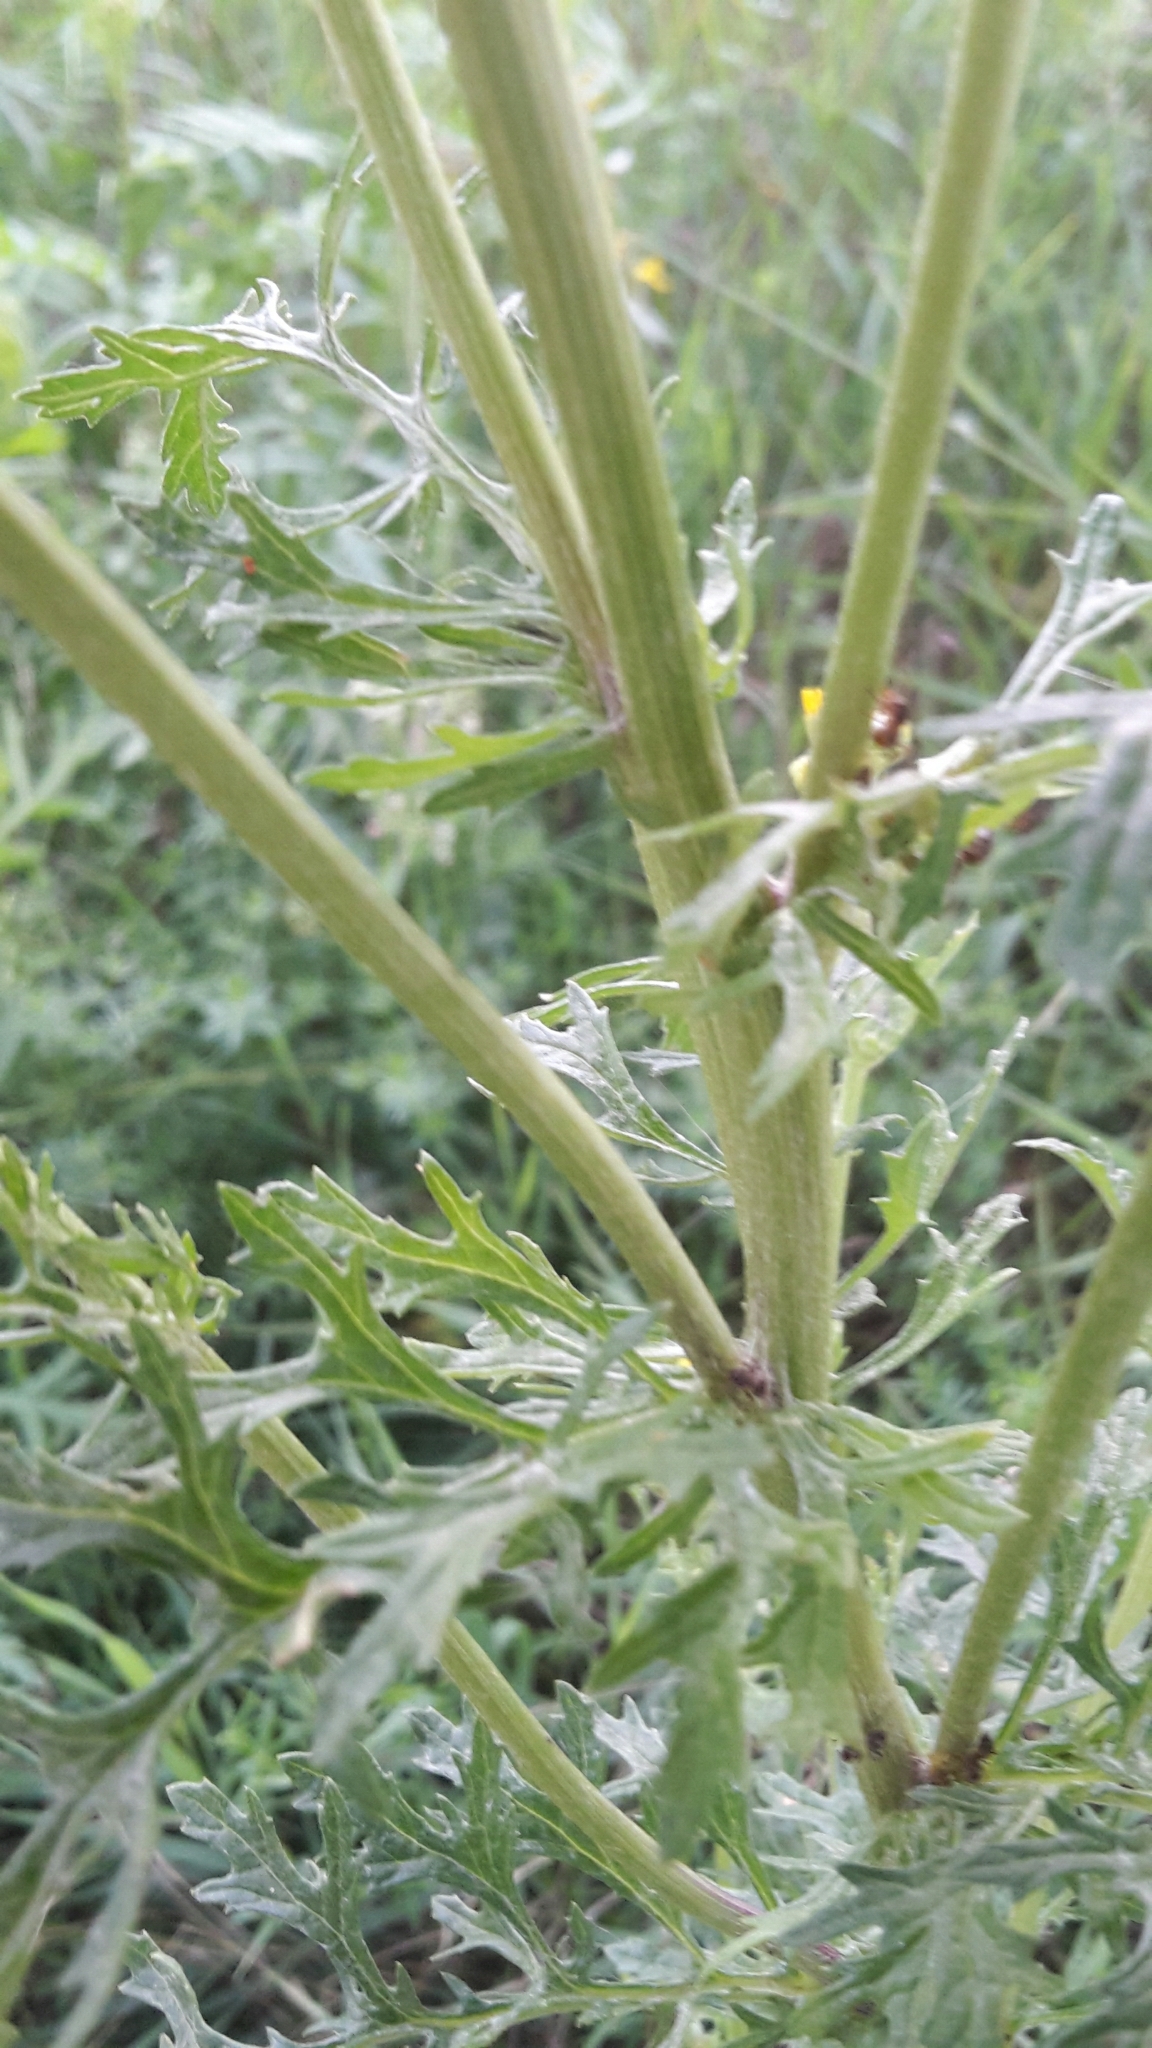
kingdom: Plantae
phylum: Tracheophyta
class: Magnoliopsida
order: Asterales
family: Asteraceae
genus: Jacobaea
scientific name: Jacobaea vulgaris
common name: Stinking willie
